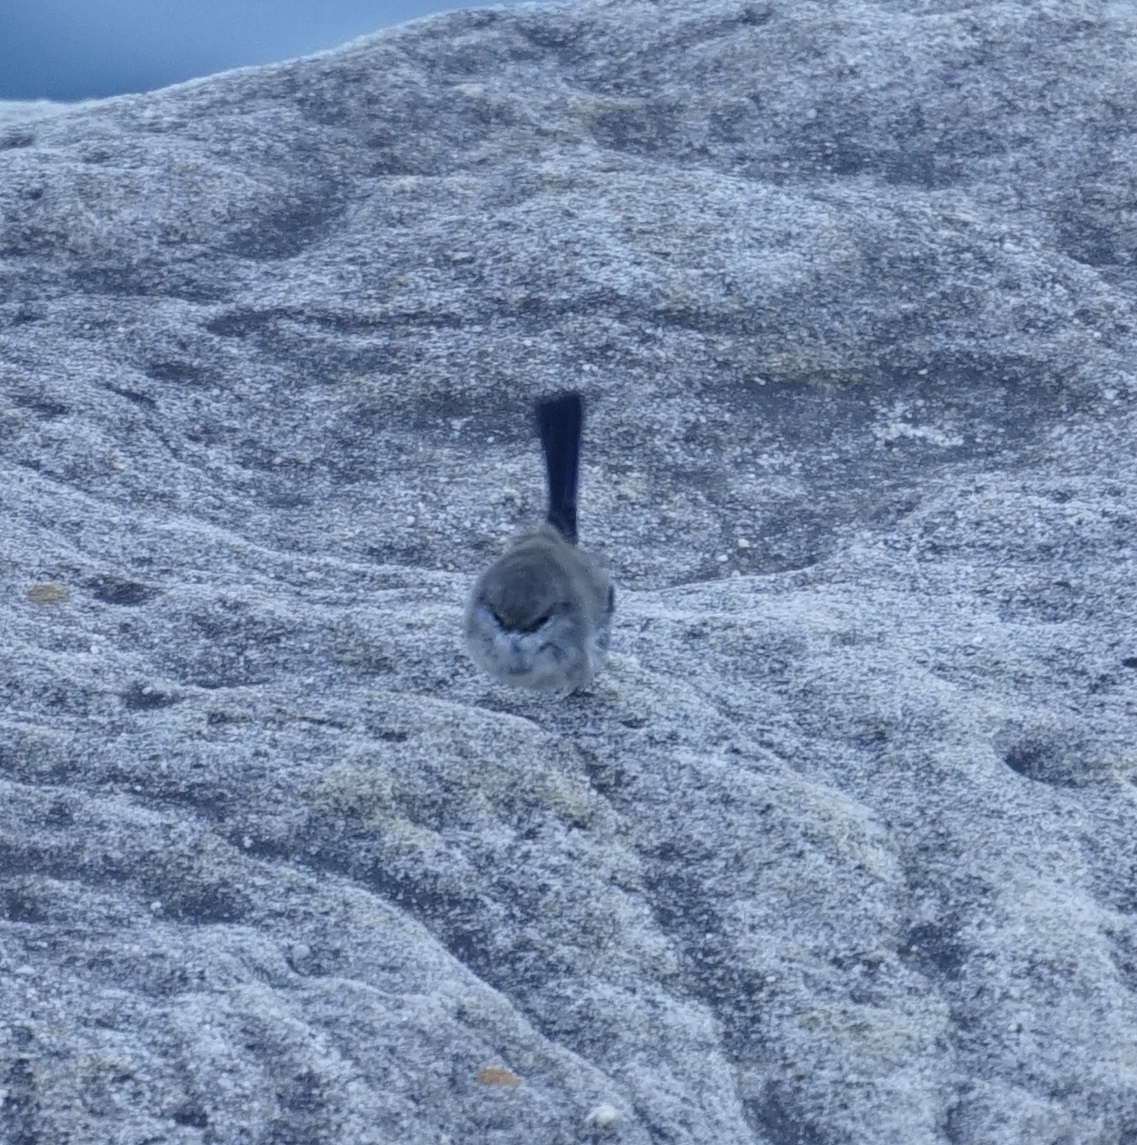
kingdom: Animalia
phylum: Chordata
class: Aves
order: Passeriformes
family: Maluridae
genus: Malurus
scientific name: Malurus cyaneus
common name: Superb fairywren
